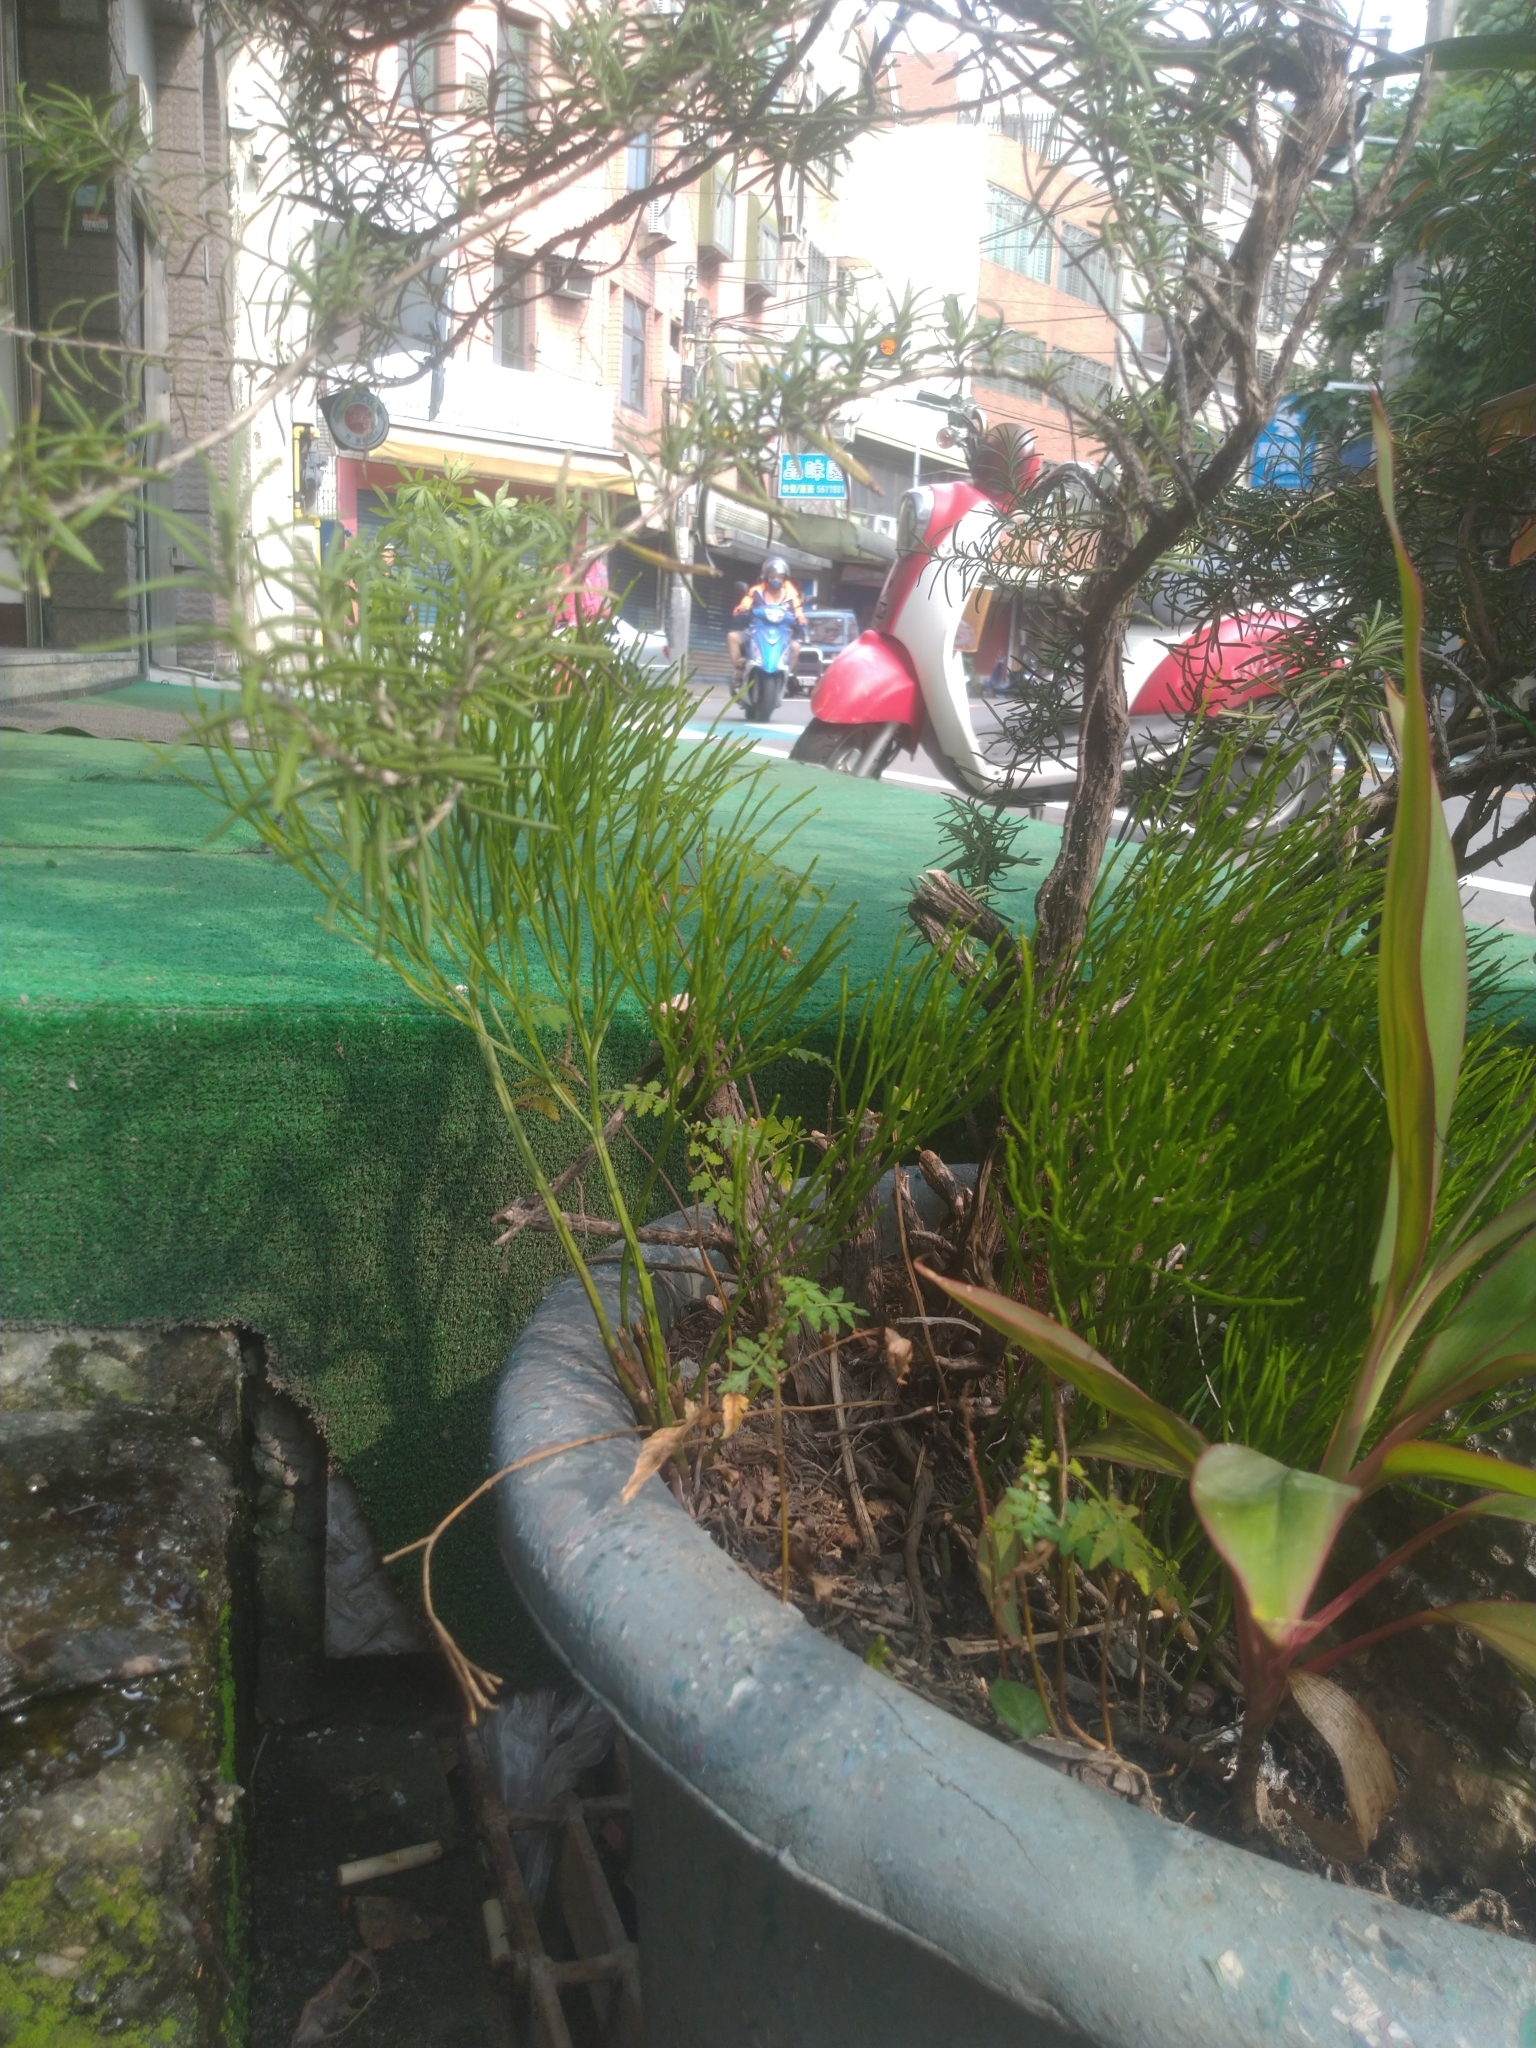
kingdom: Plantae
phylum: Tracheophyta
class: Polypodiopsida
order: Psilotales
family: Psilotaceae
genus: Psilotum
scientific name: Psilotum nudum
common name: Skeleton fork fern
